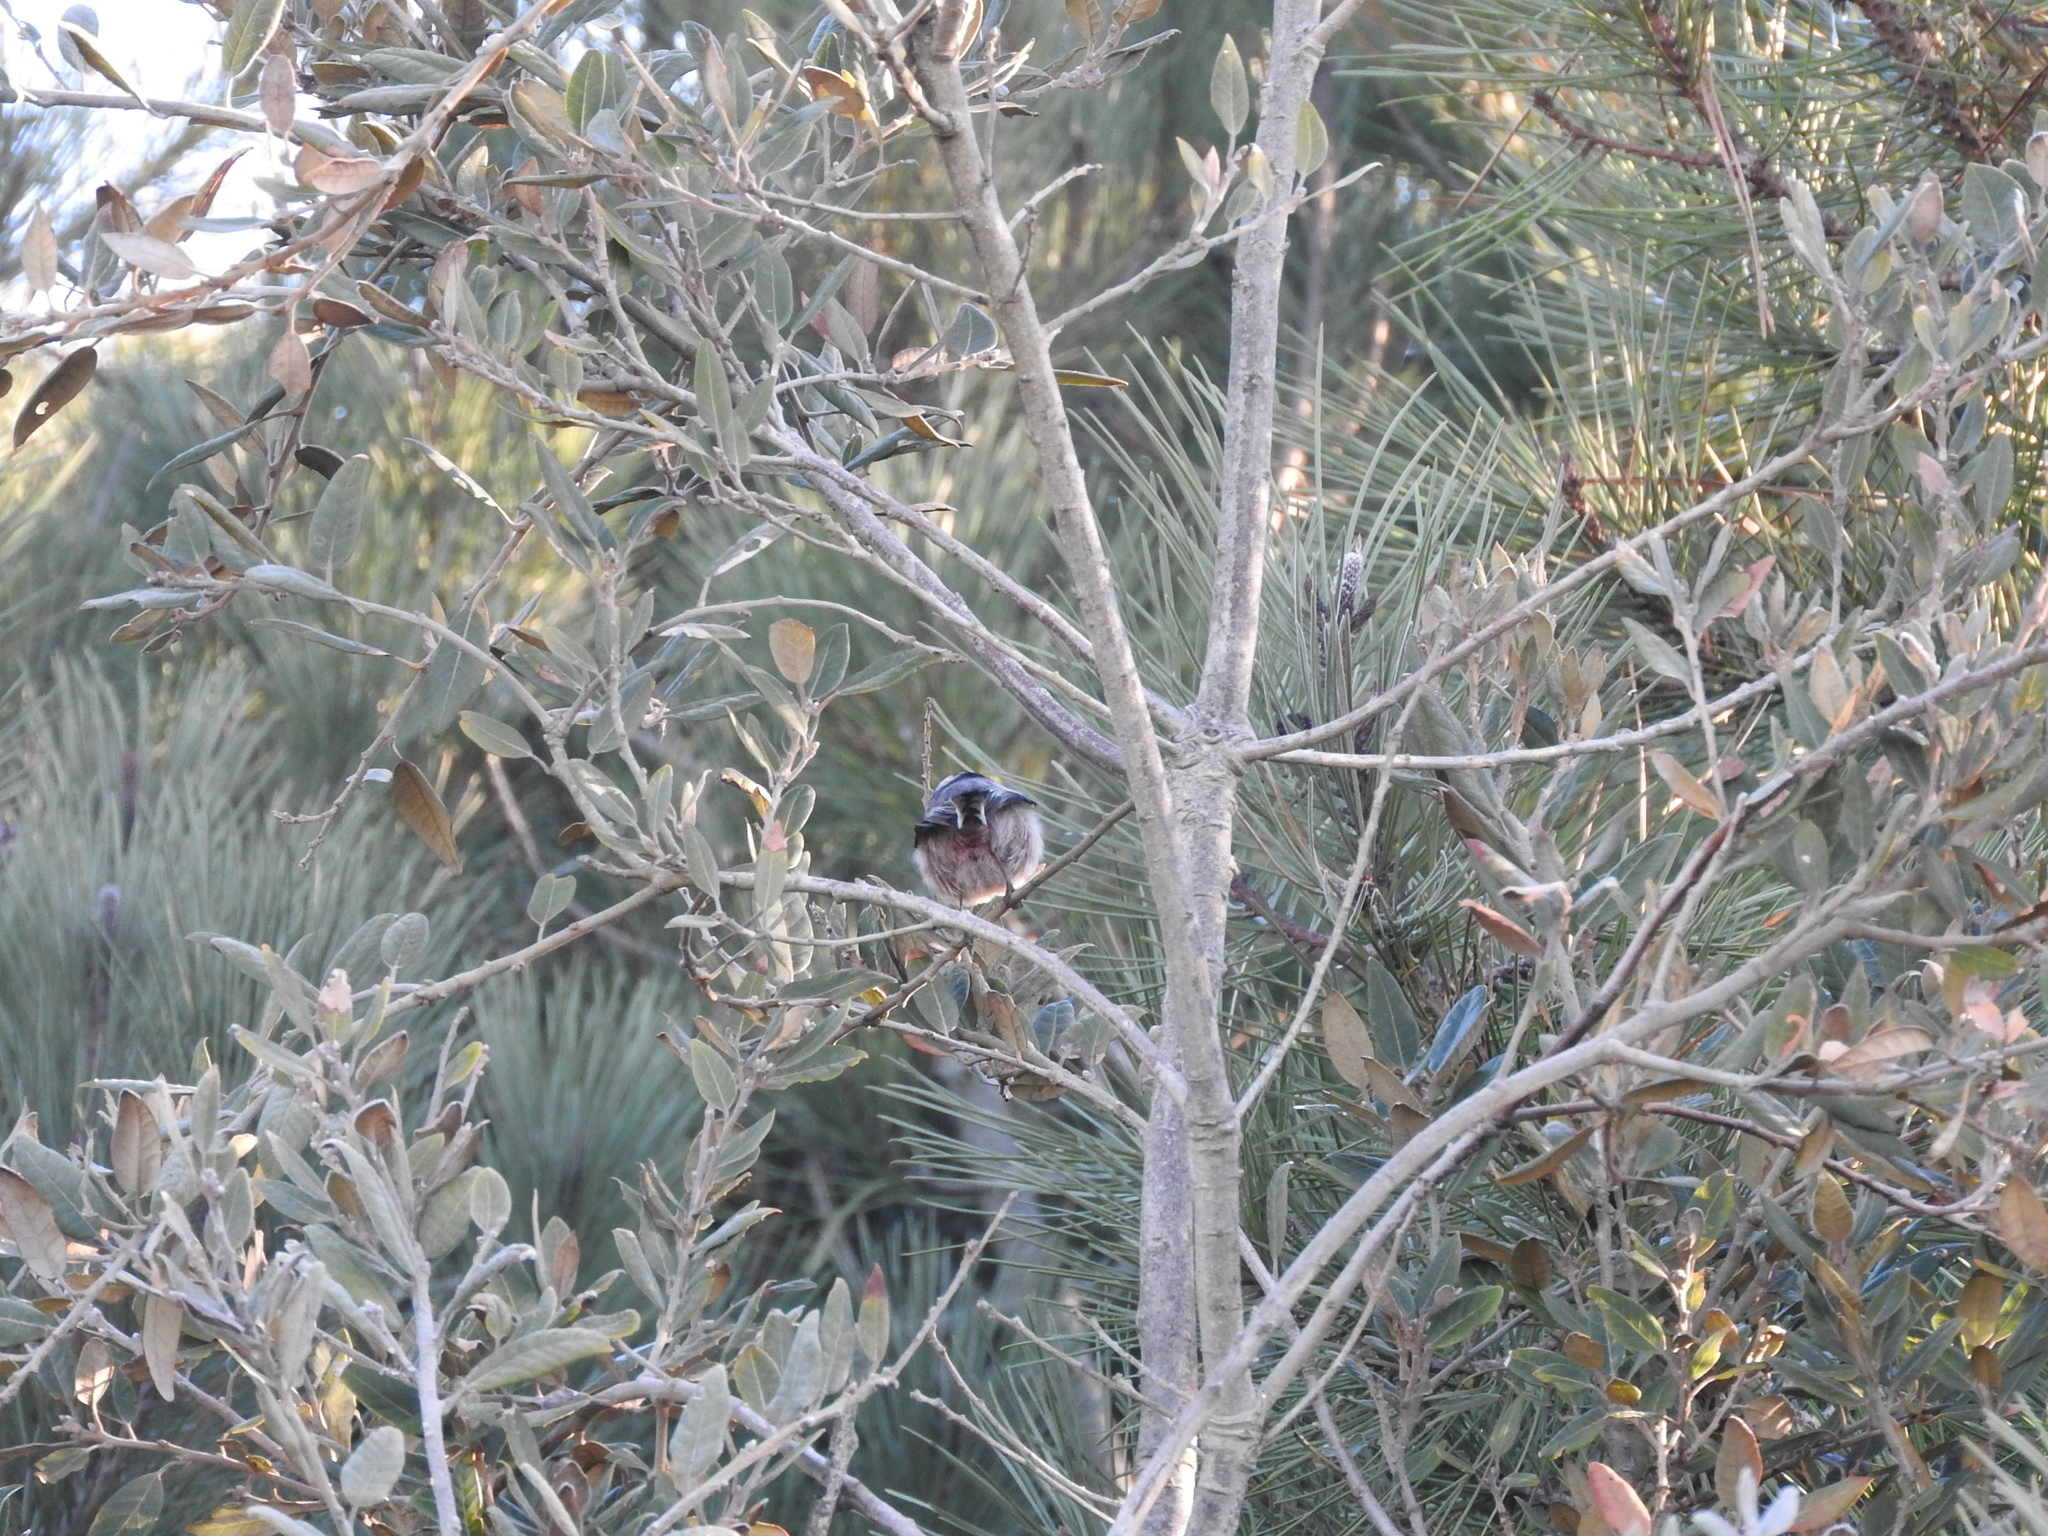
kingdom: Animalia
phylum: Chordata
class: Aves
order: Passeriformes
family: Aegithalidae
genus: Aegithalos
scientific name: Aegithalos caudatus
